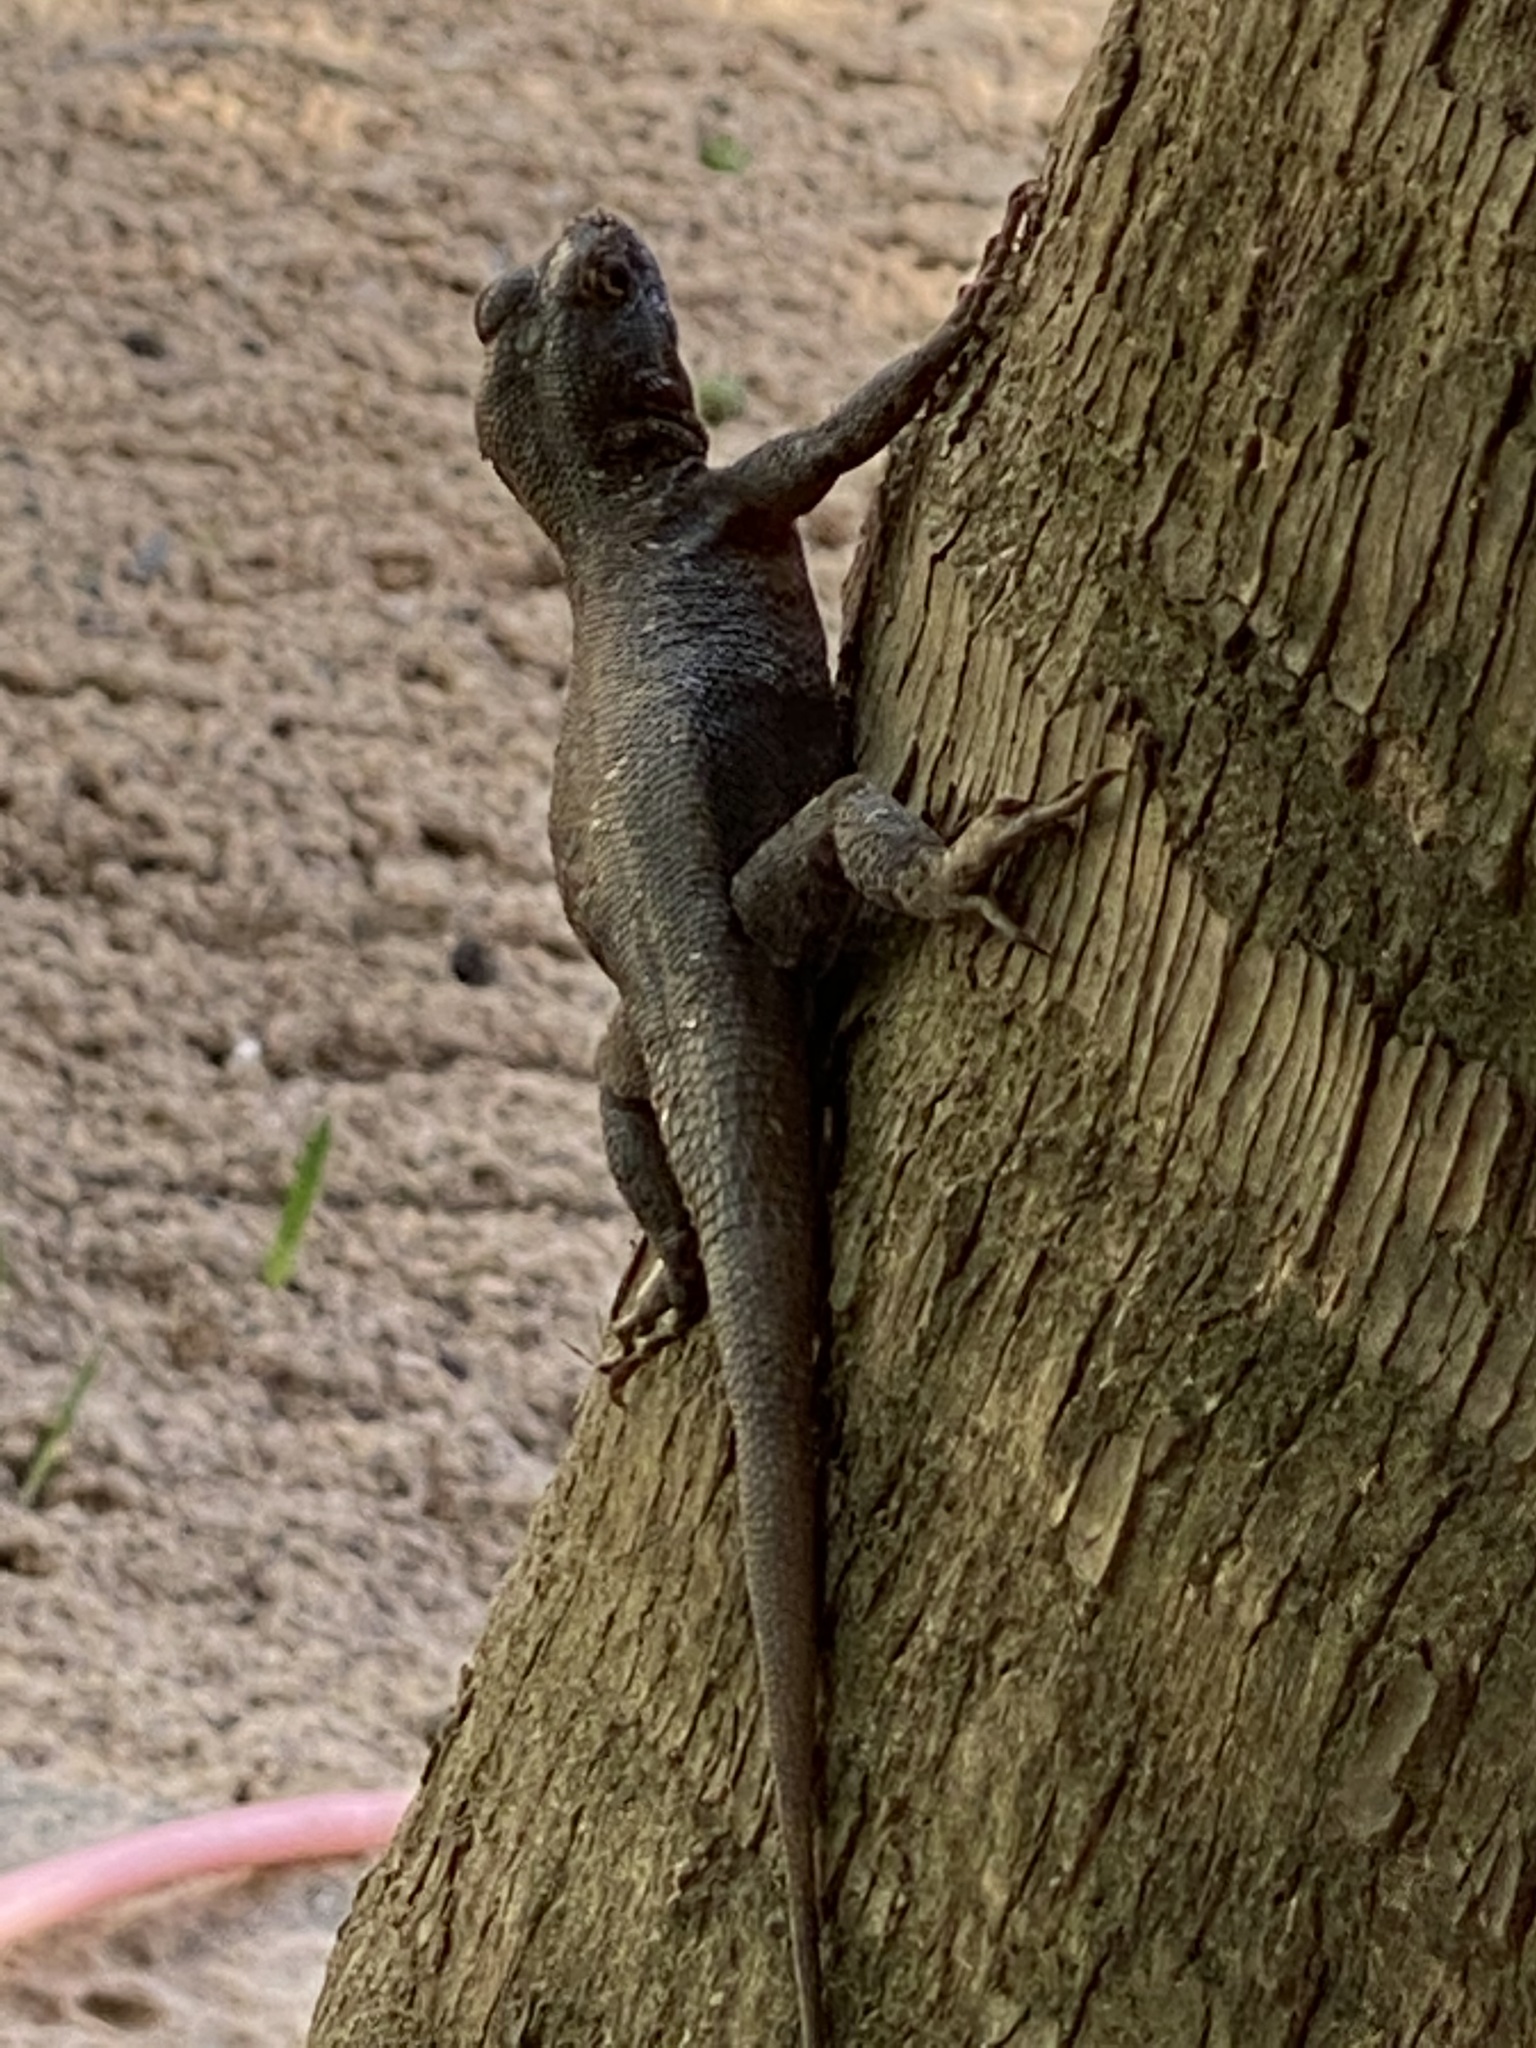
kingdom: Animalia
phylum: Chordata
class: Squamata
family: Tropiduridae
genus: Tropidurus
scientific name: Tropidurus hispidus
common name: Peters' lava lizard
